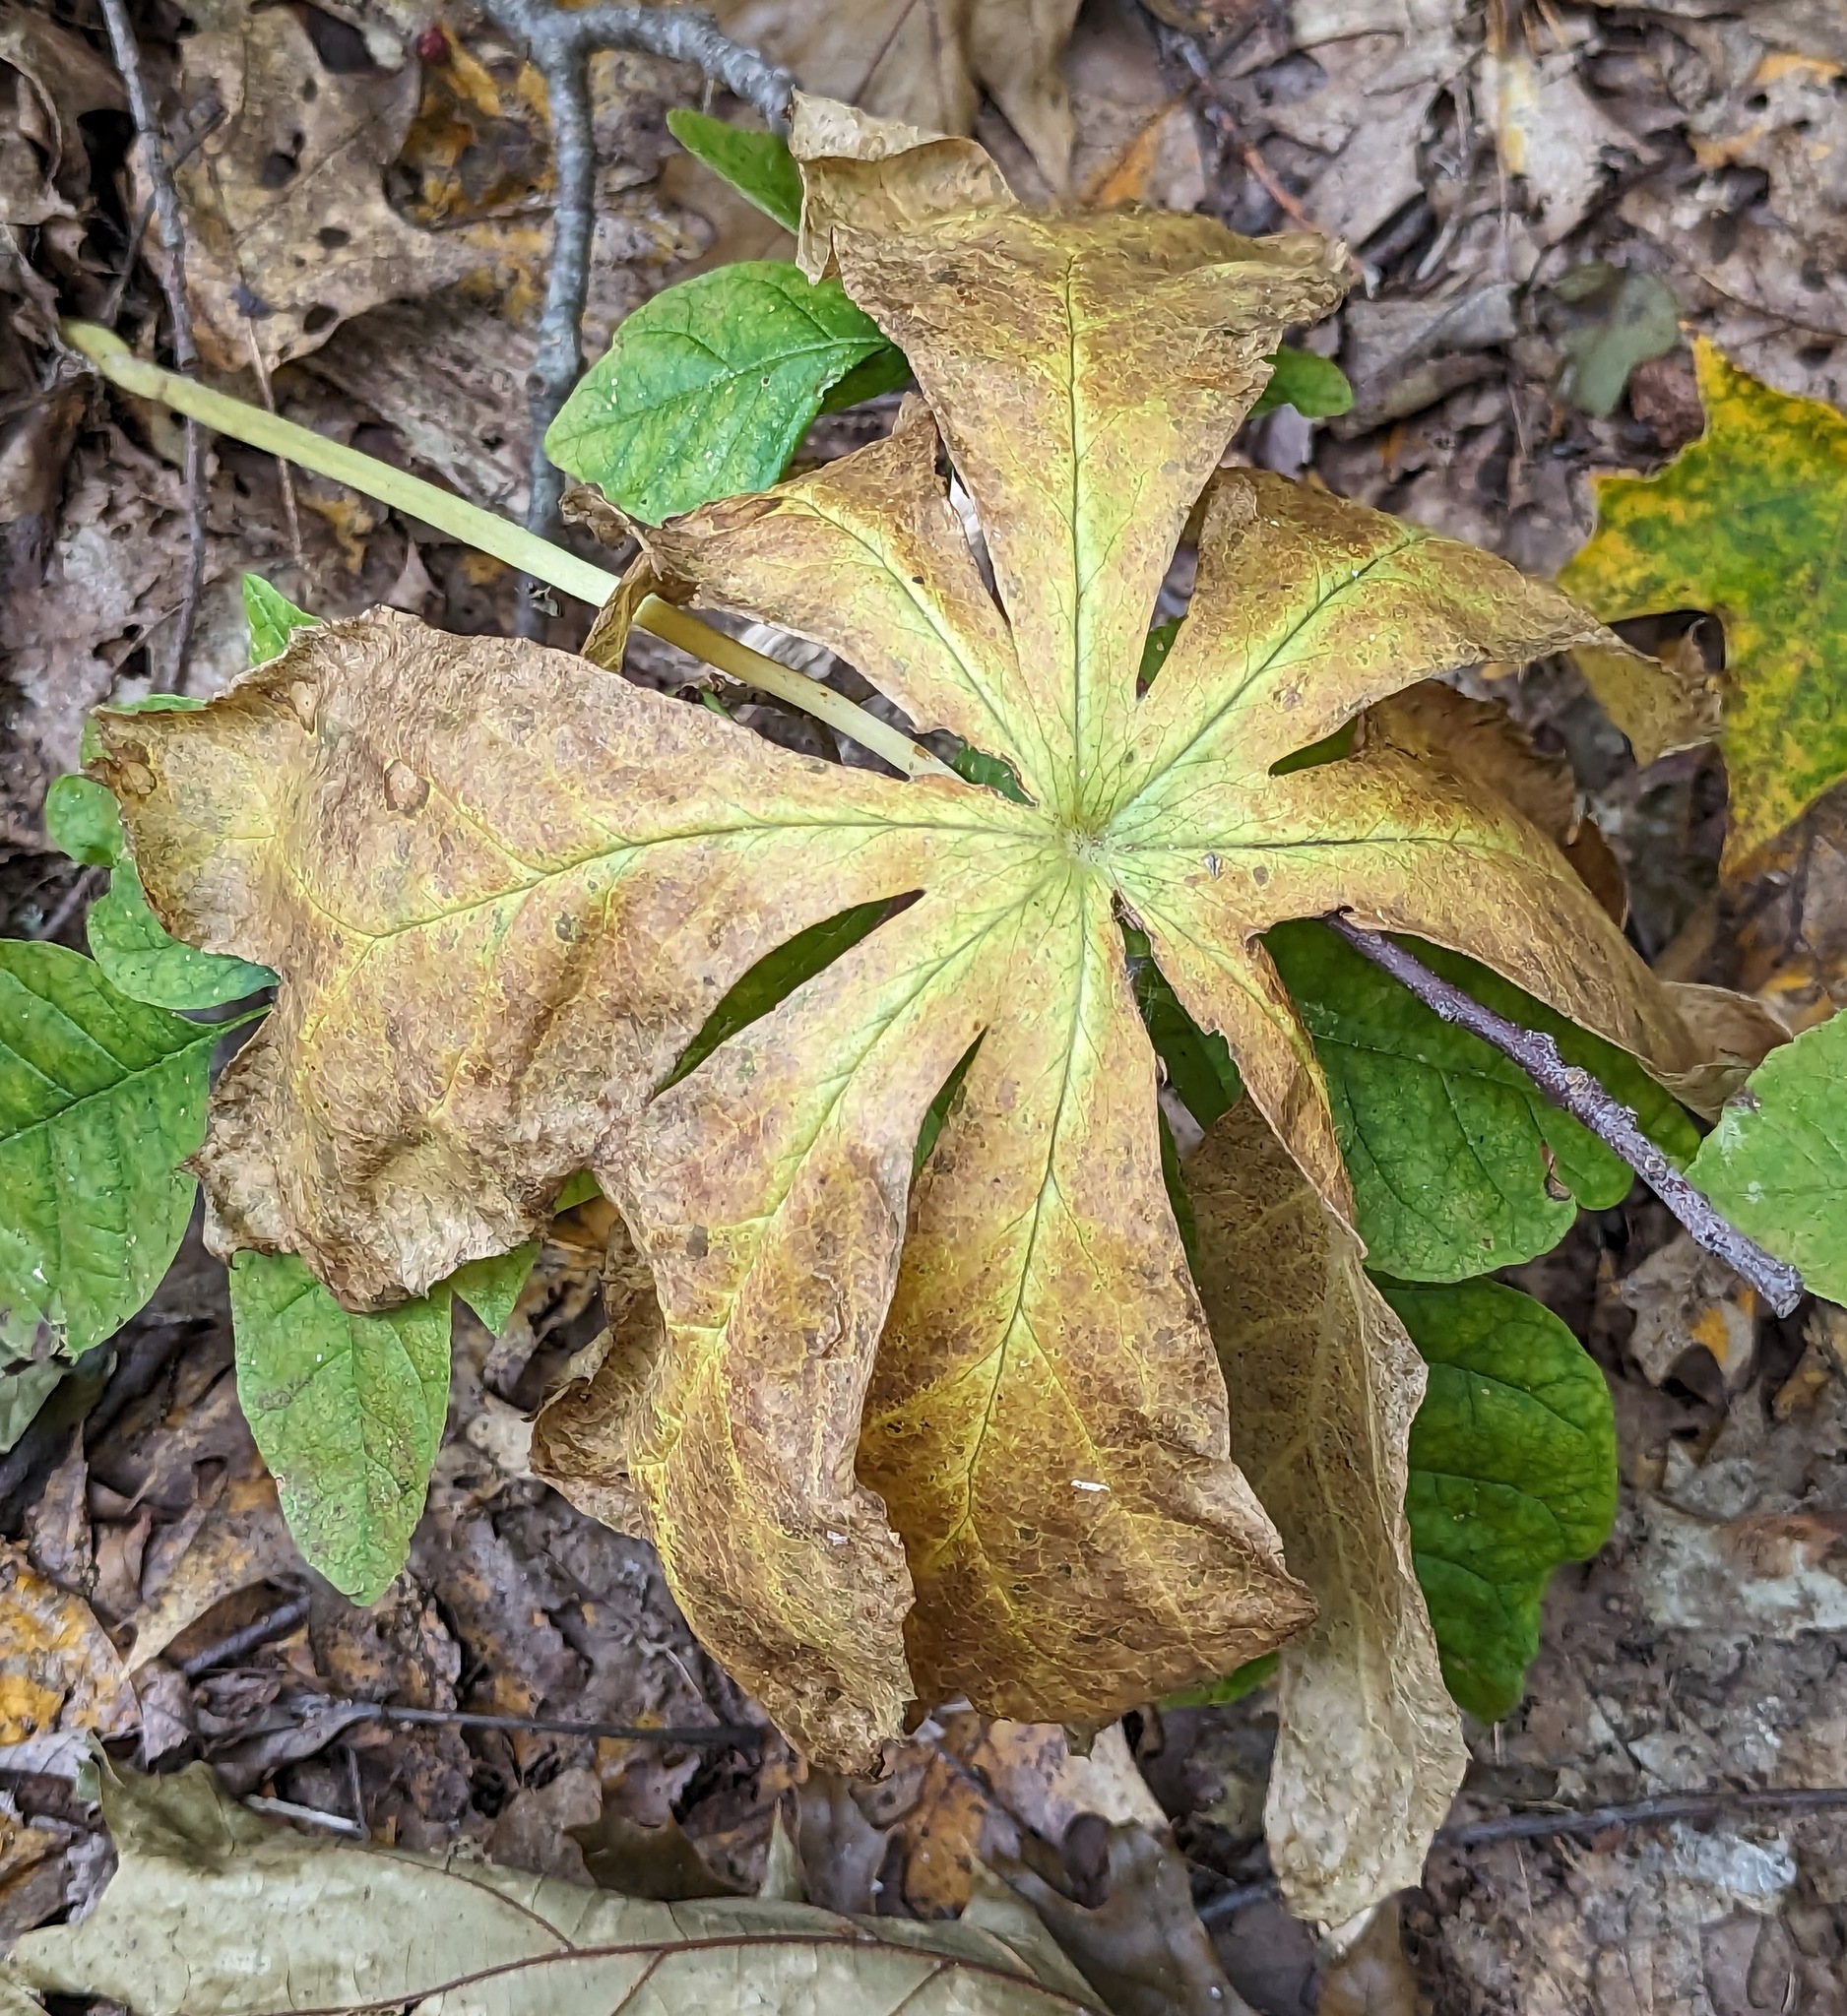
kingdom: Plantae
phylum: Tracheophyta
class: Magnoliopsida
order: Ranunculales
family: Berberidaceae
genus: Podophyllum
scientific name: Podophyllum peltatum
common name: Wild mandrake
